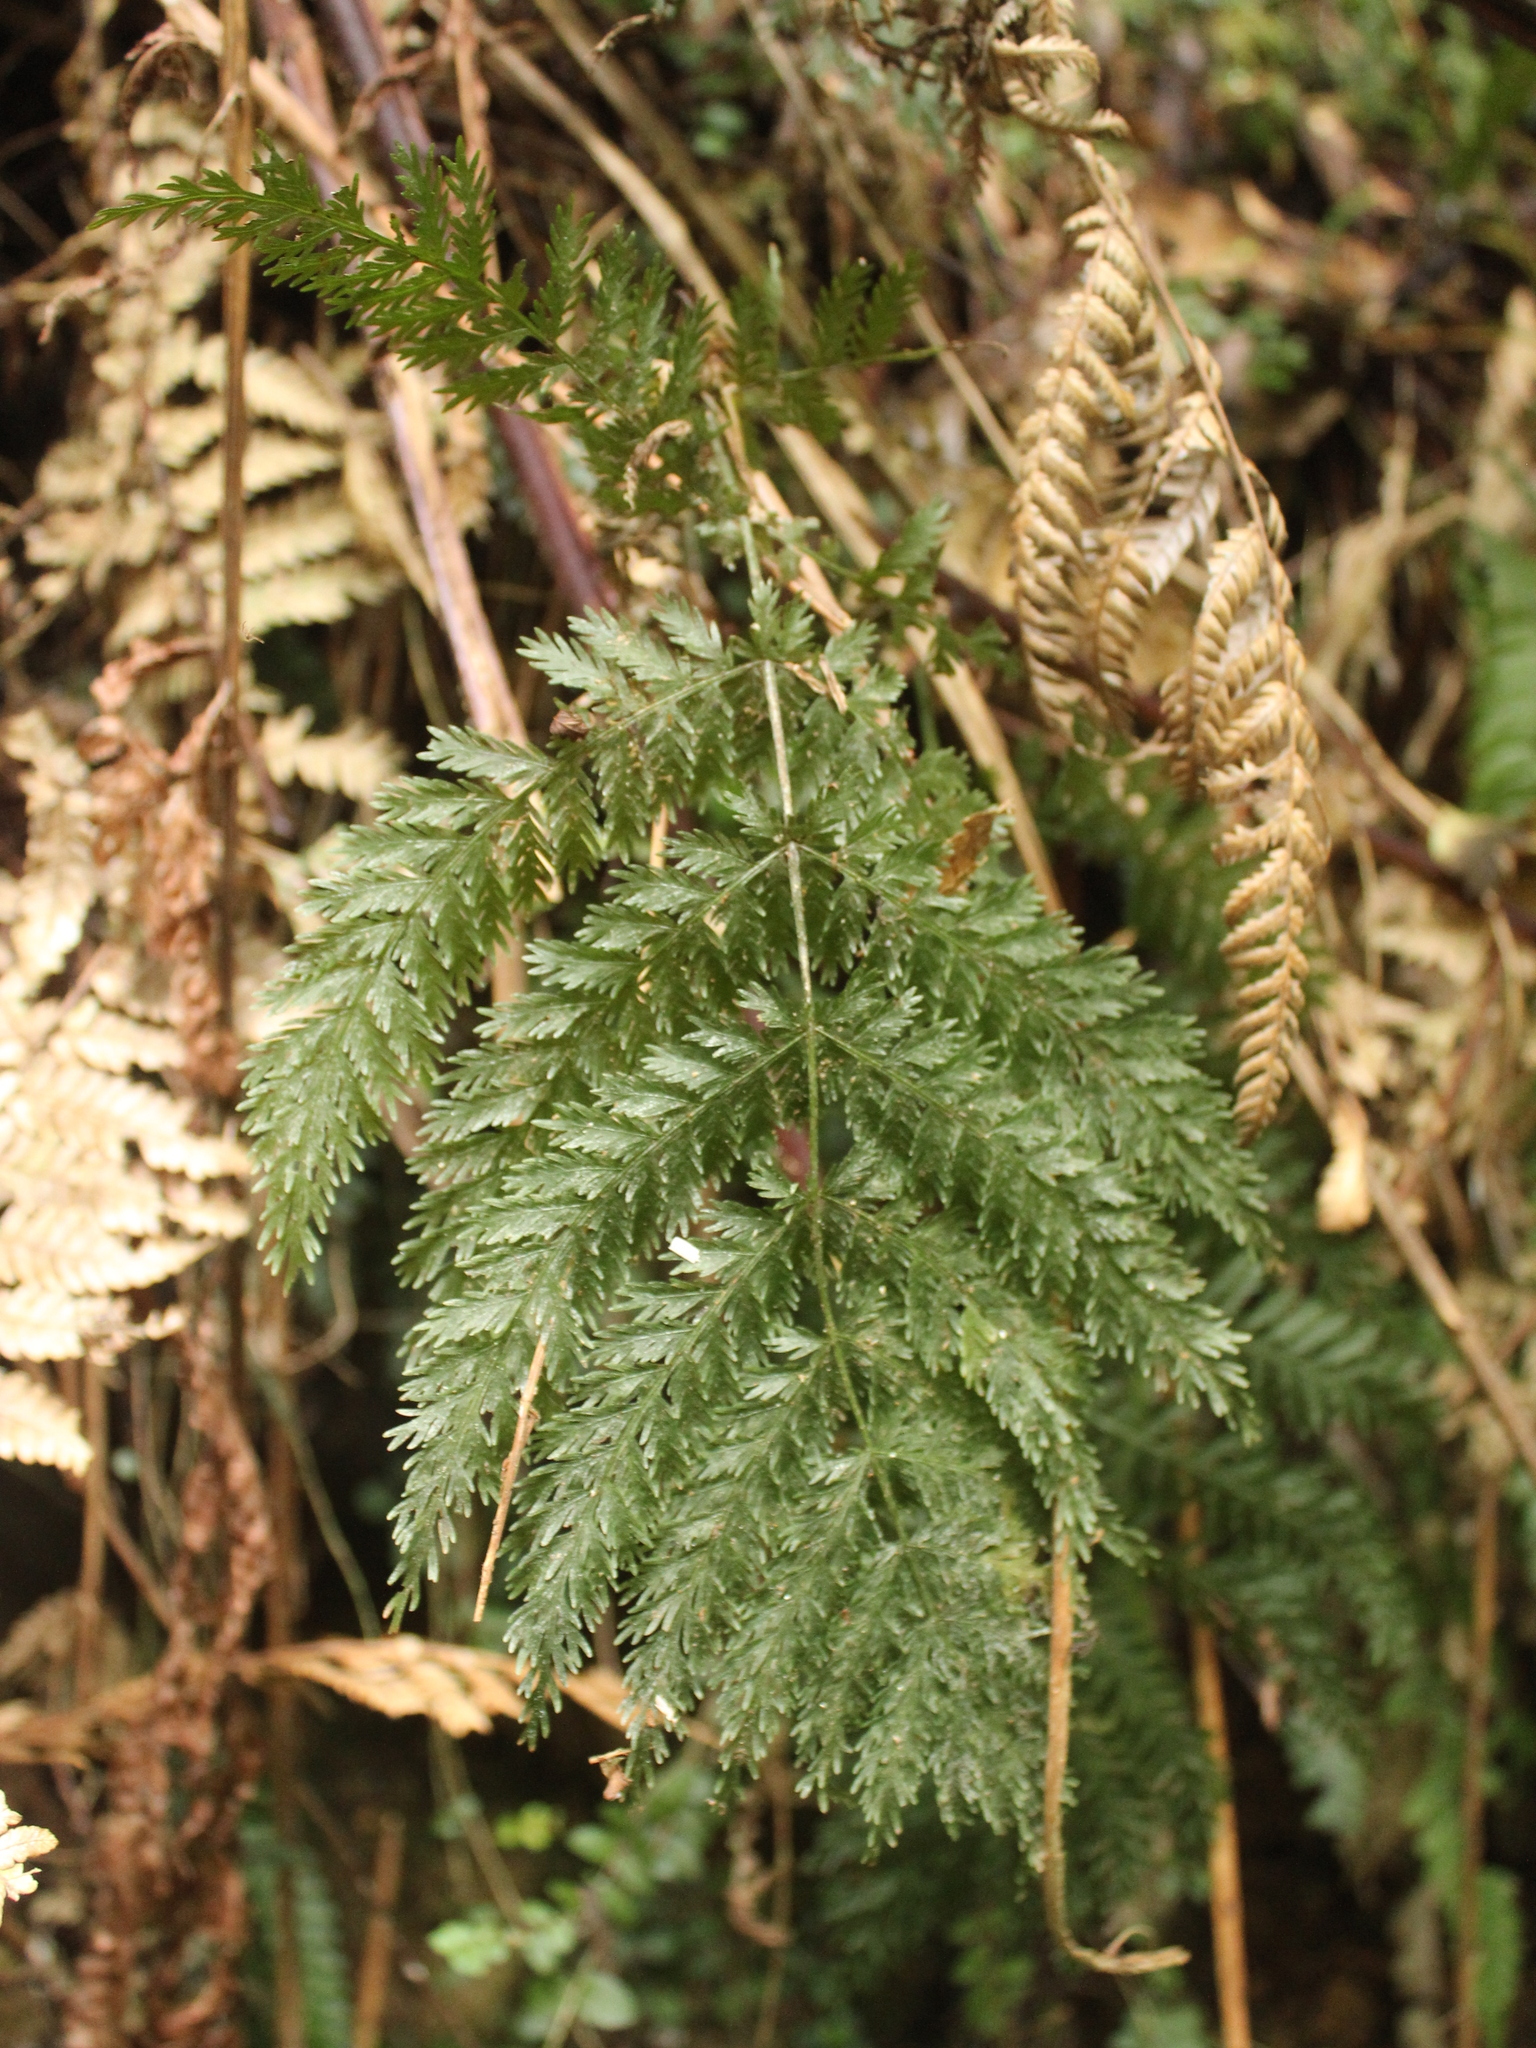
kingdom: Plantae
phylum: Tracheophyta
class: Polypodiopsida
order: Osmundales
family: Osmundaceae
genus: Leptopteris
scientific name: Leptopteris hymenophylloides
